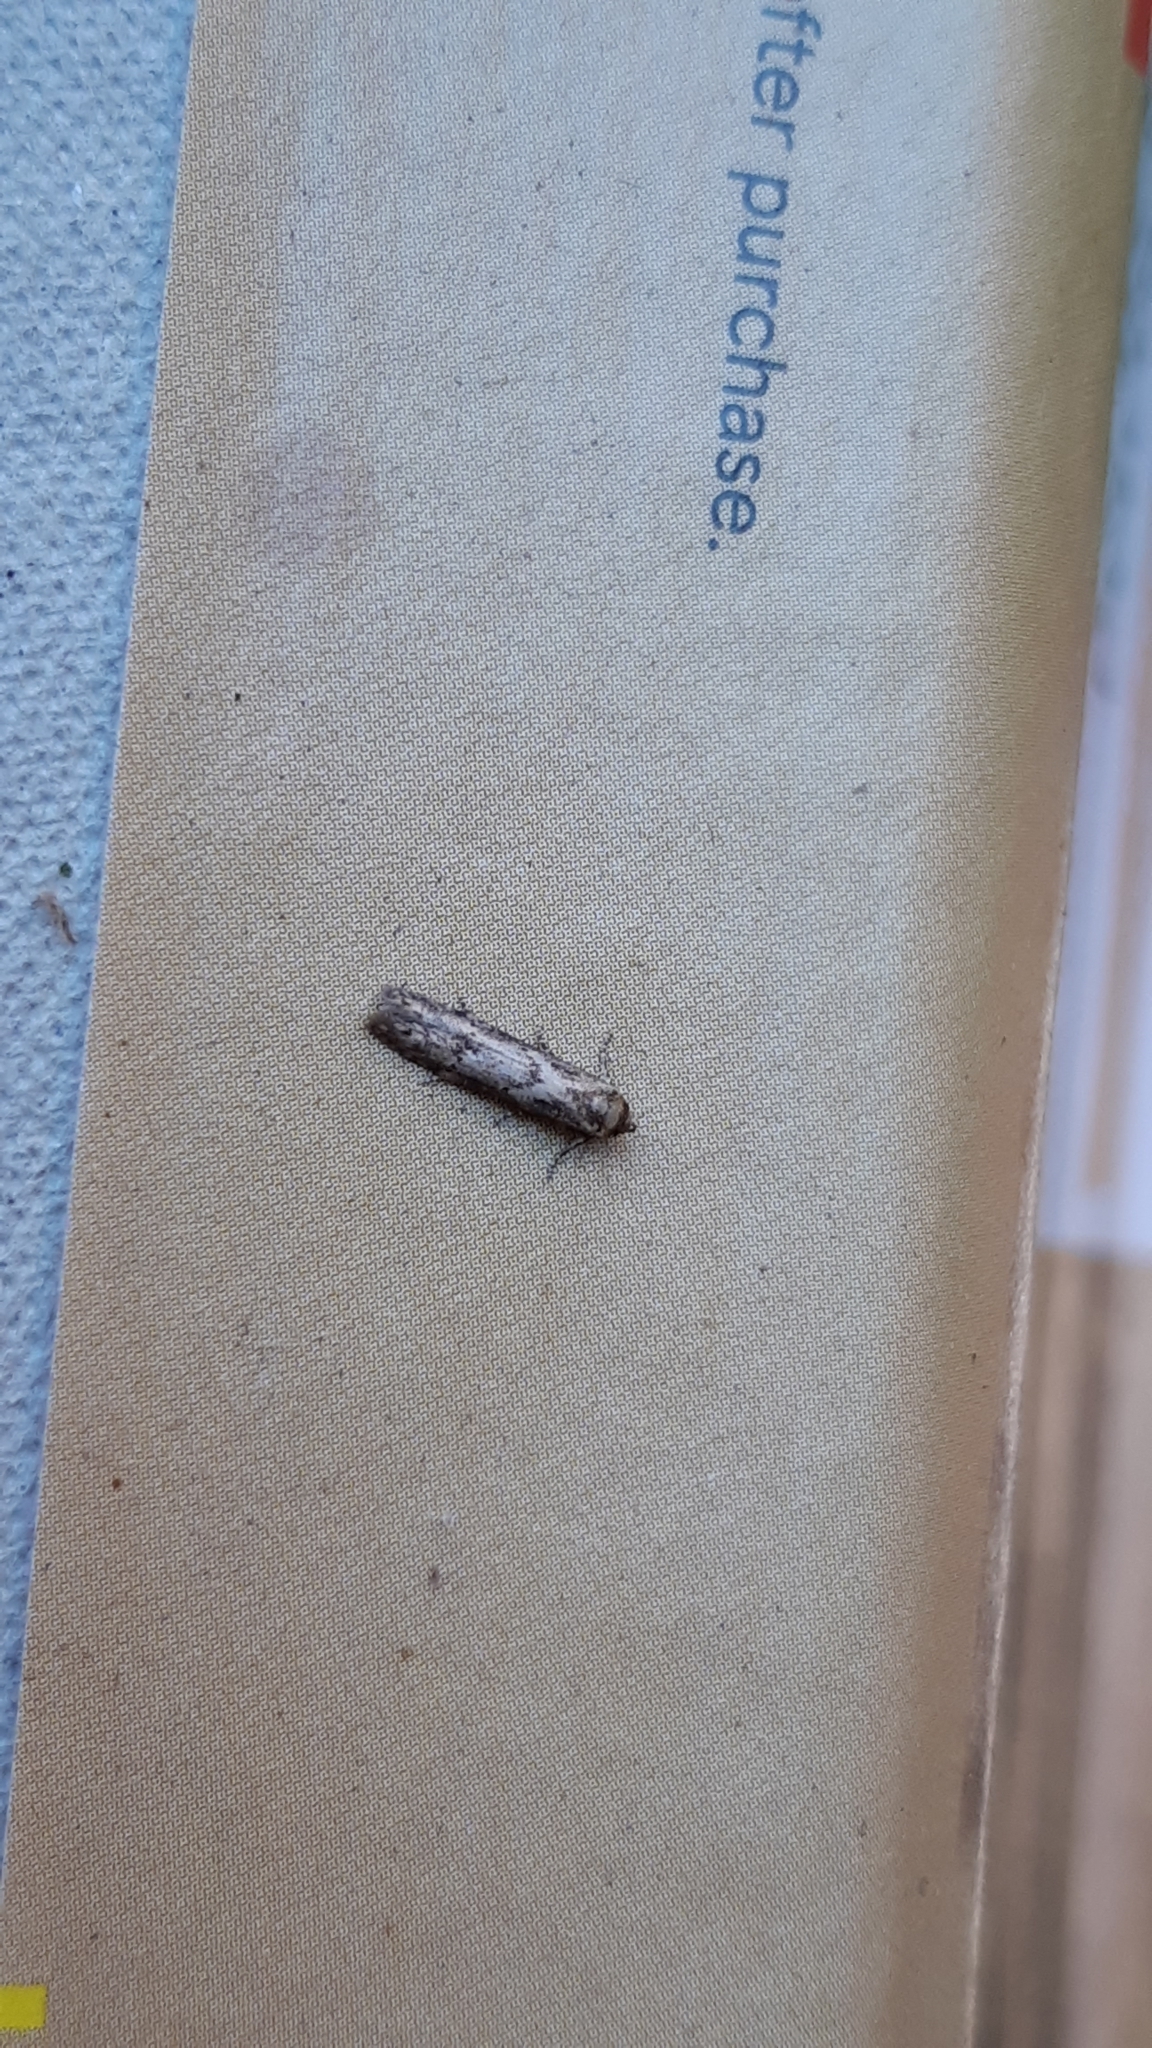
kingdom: Animalia
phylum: Arthropoda
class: Insecta
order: Lepidoptera
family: Blastobasidae
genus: Blastobasis
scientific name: Blastobasis adustella
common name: Dingy dowd
